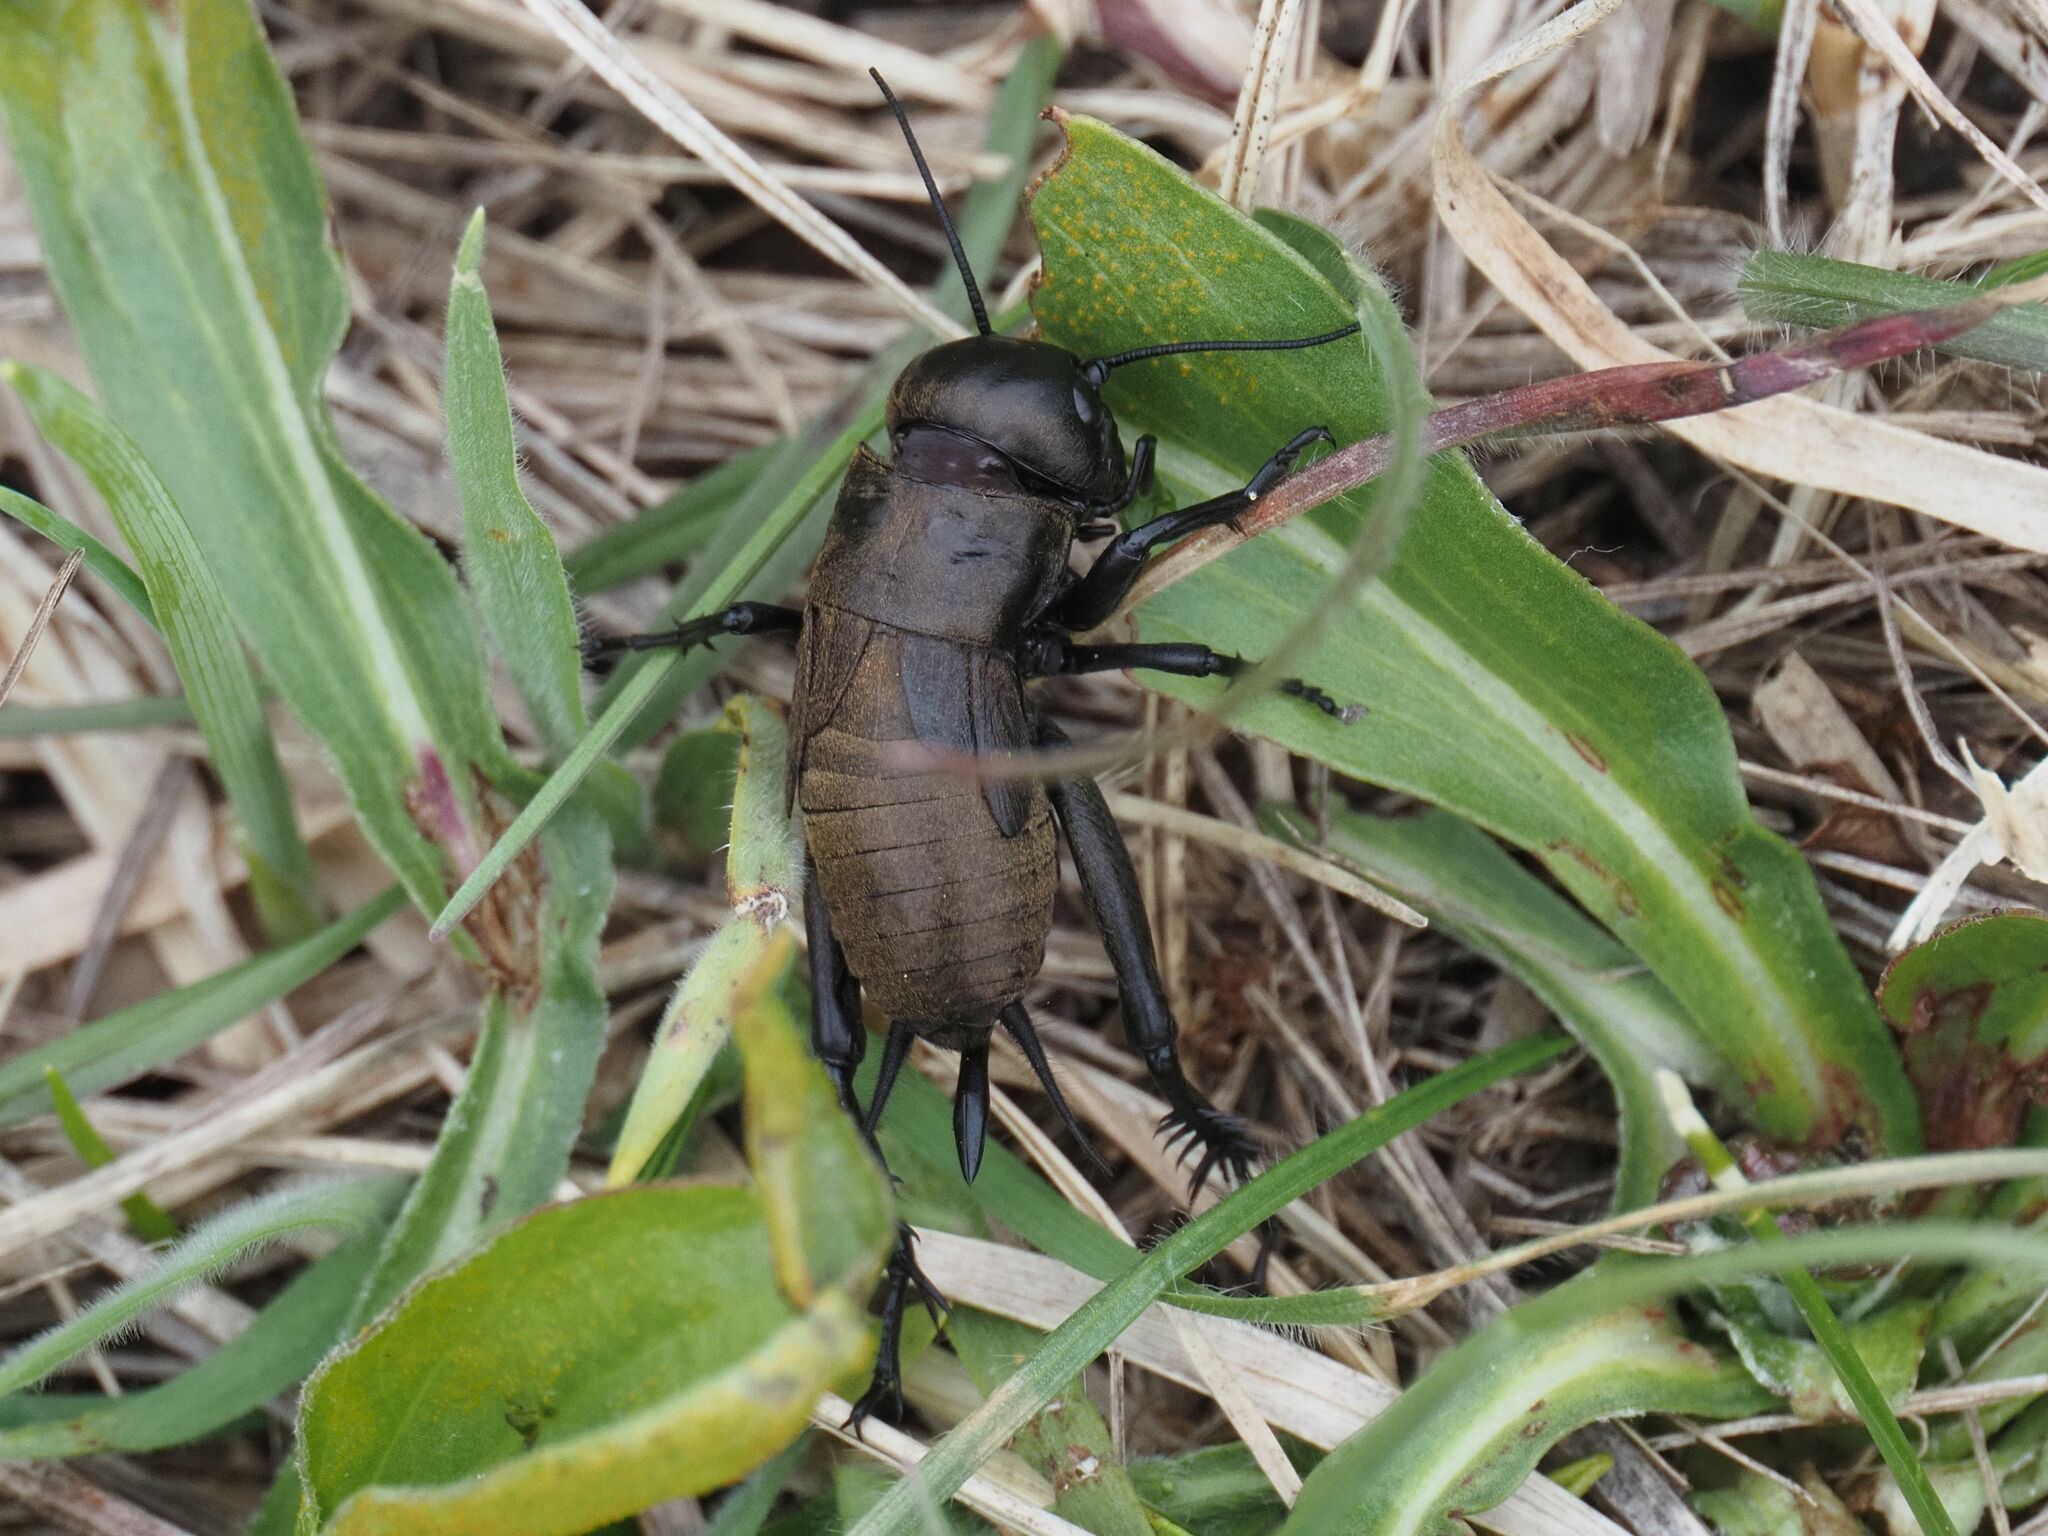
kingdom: Animalia
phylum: Arthropoda
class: Insecta
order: Orthoptera
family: Gryllidae
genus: Gryllus
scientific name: Gryllus campestris
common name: Field cricket
